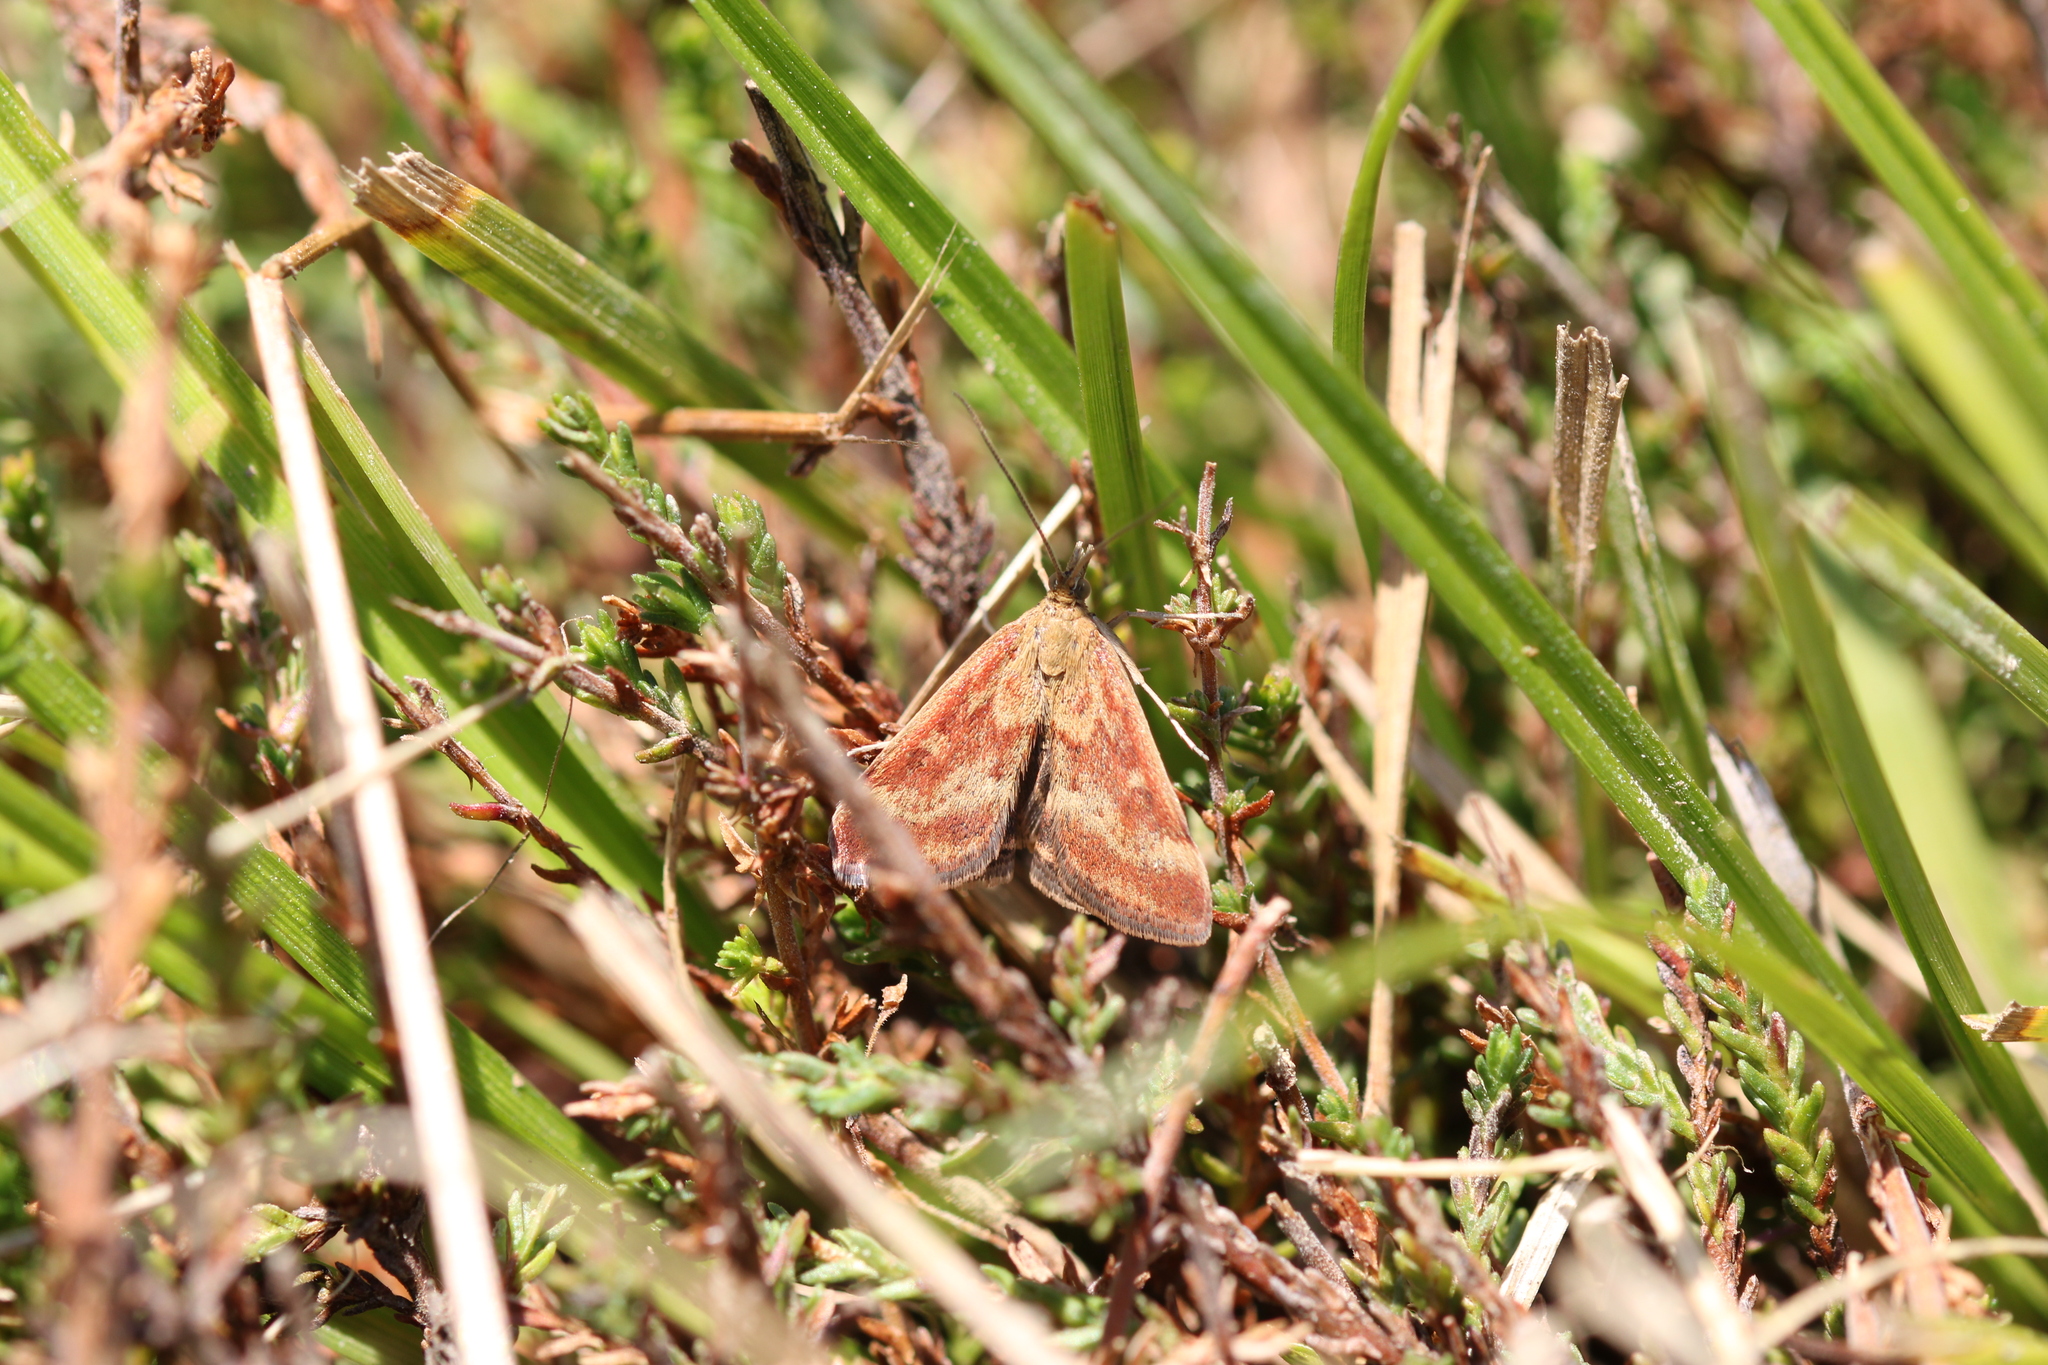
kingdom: Animalia
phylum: Arthropoda
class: Insecta
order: Lepidoptera
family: Crambidae
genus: Pyrausta
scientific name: Pyrausta despicata
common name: Straw-barred pearl
